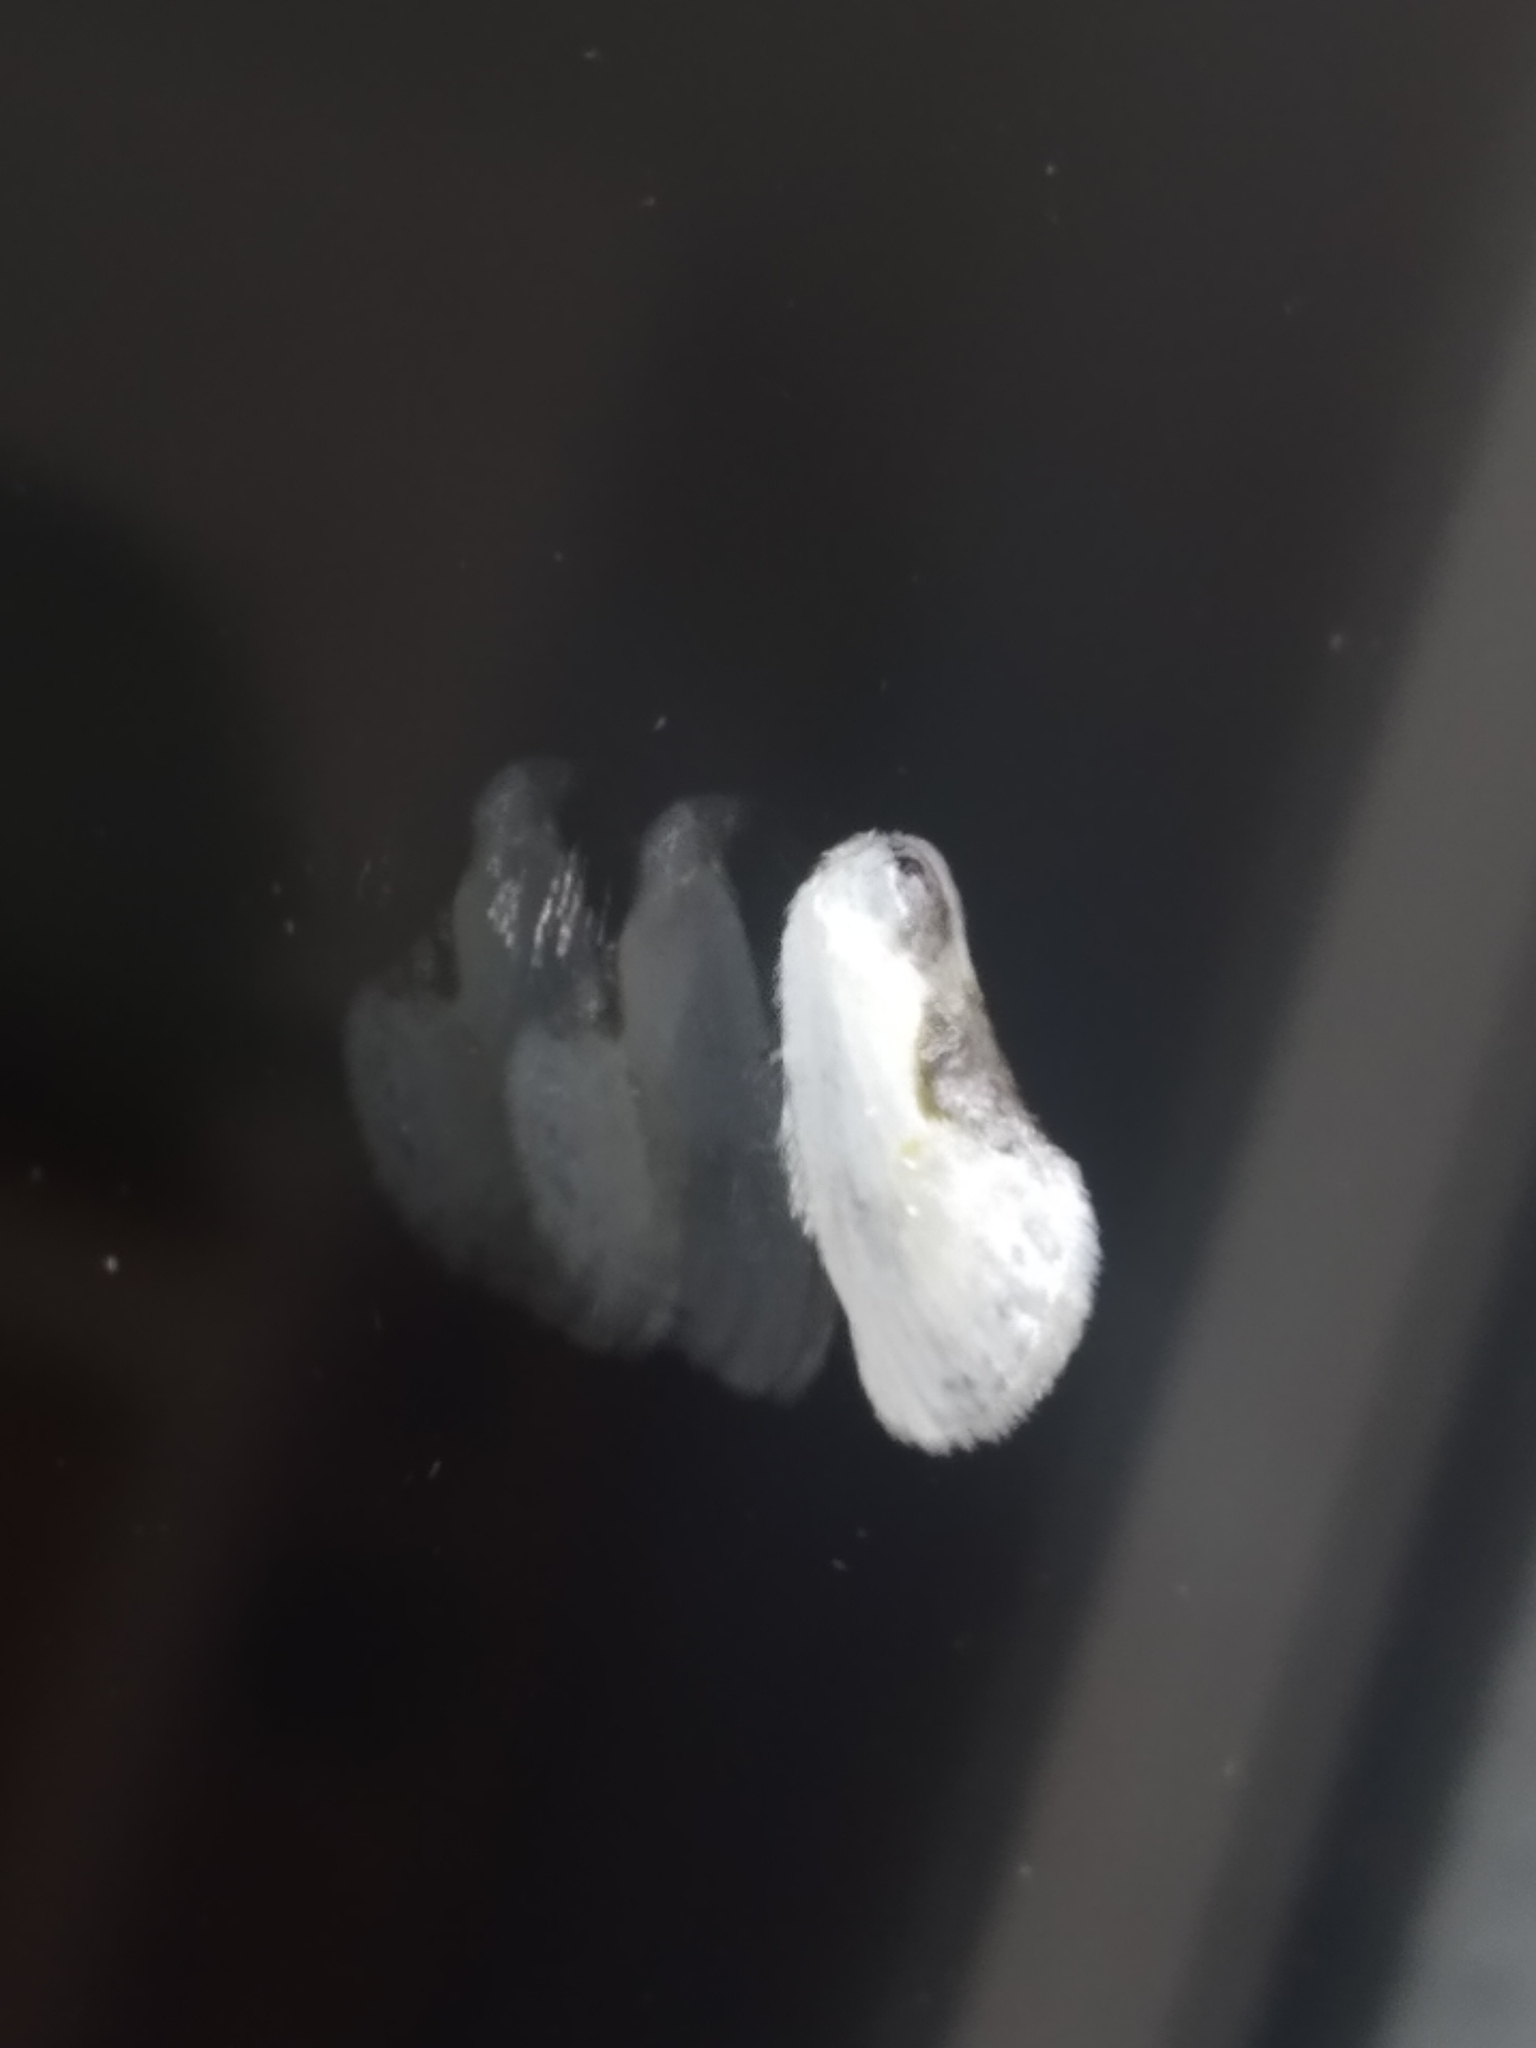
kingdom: Animalia
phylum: Arthropoda
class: Insecta
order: Lepidoptera
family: Drepanidae
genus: Cilix
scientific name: Cilix glaucata
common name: Chinese character
